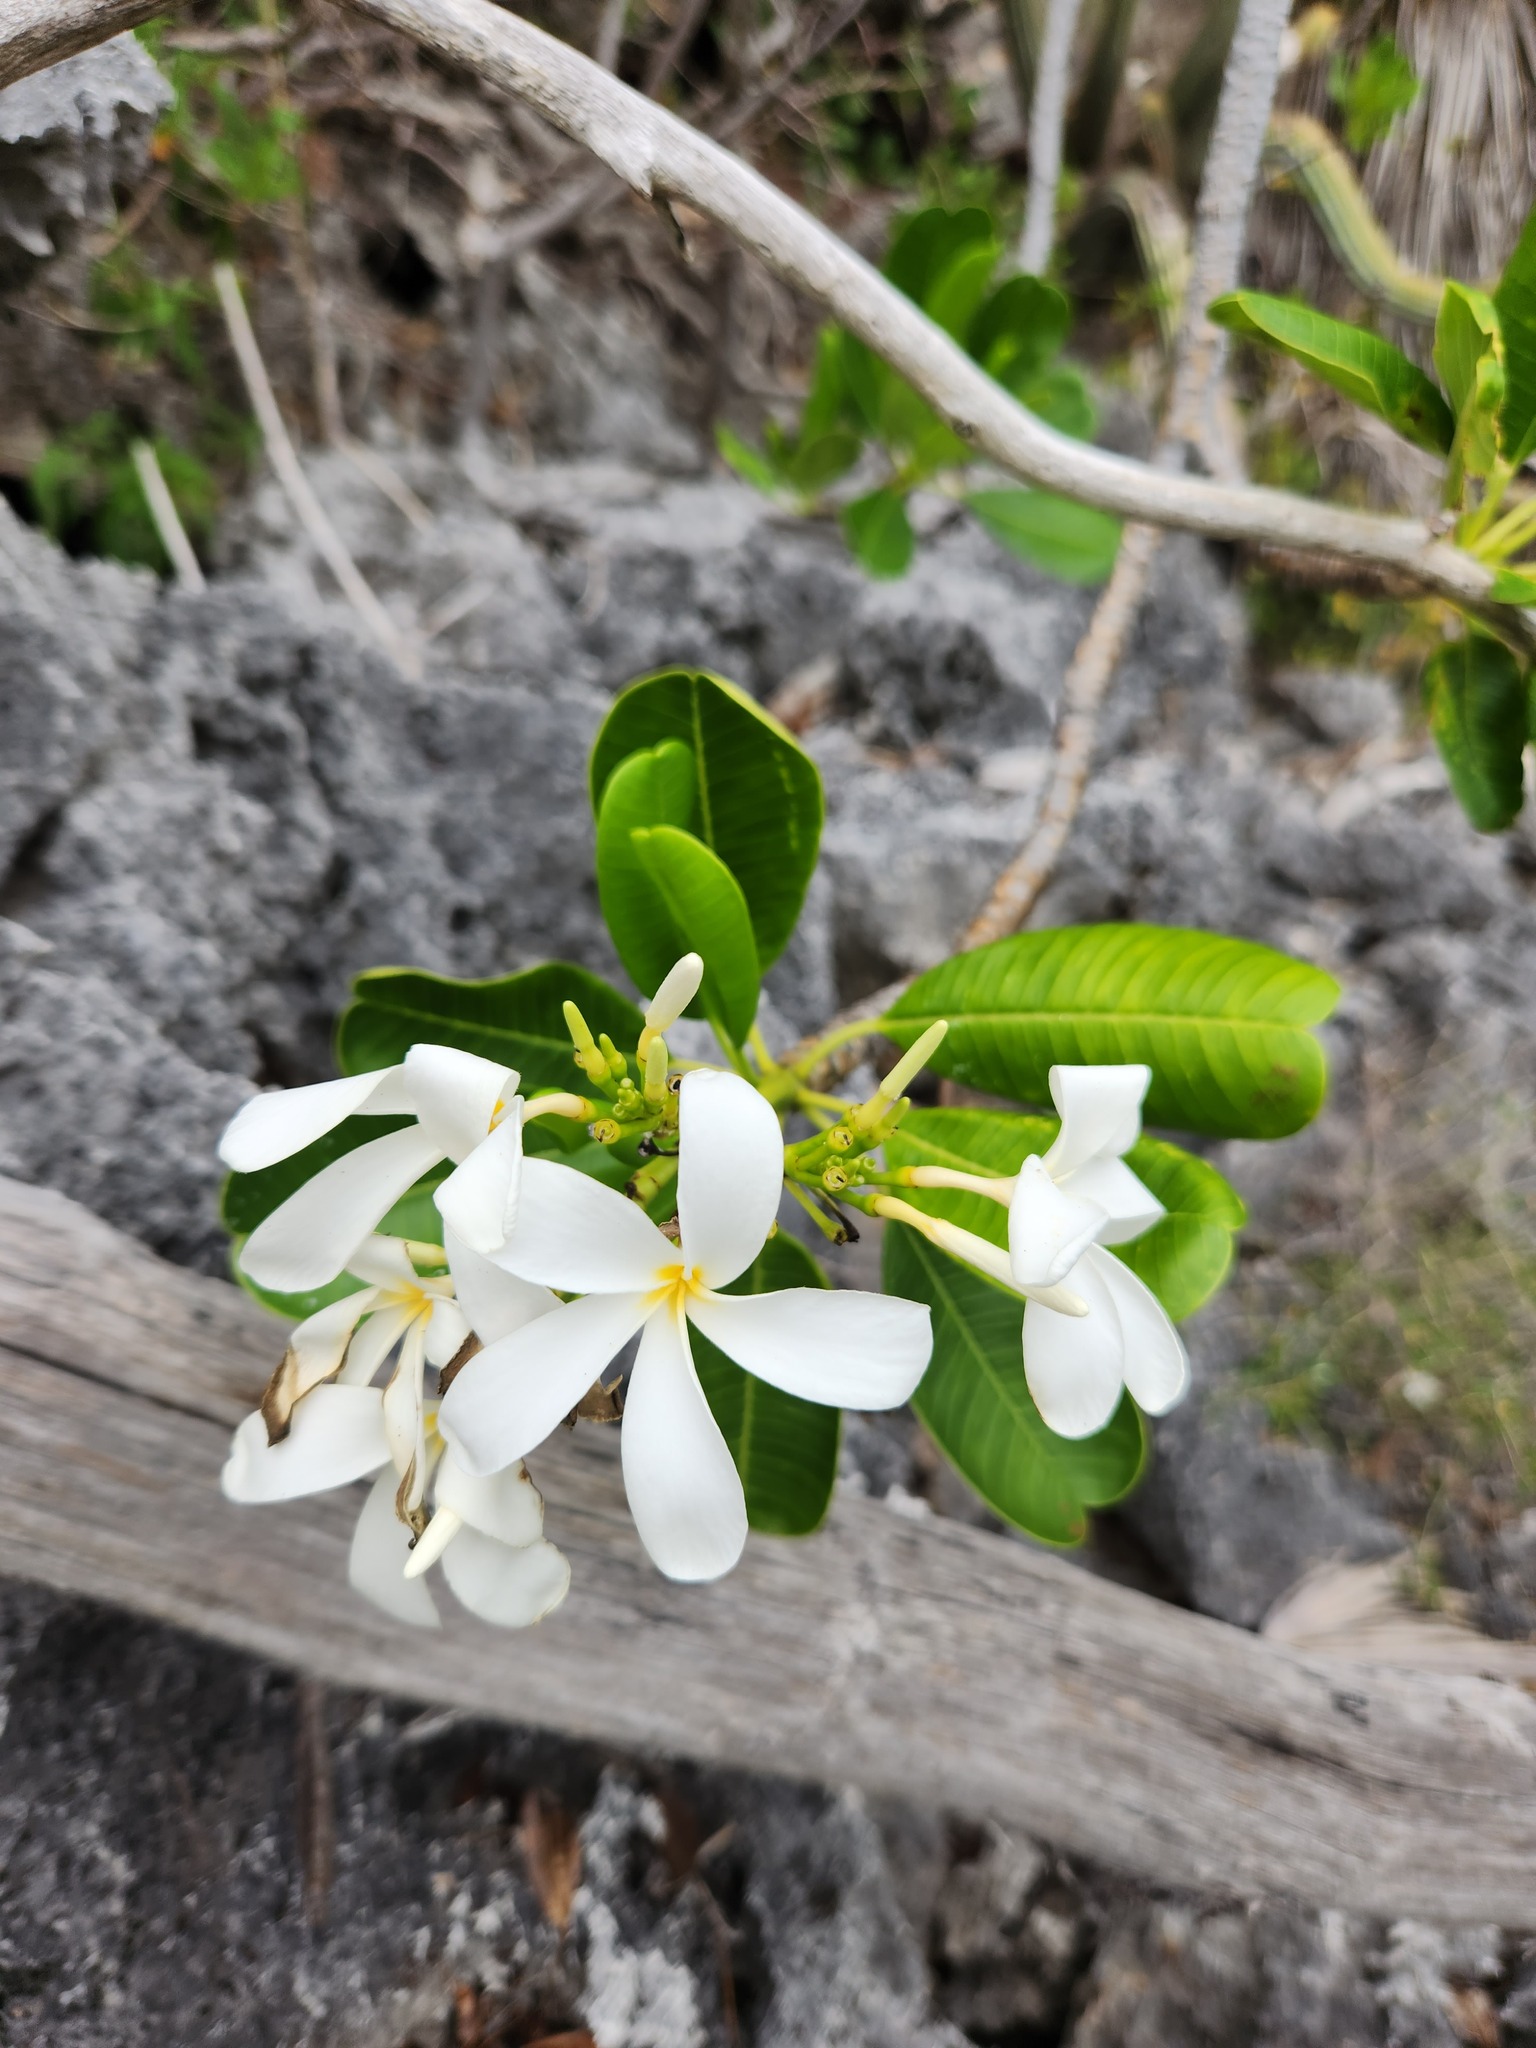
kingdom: Plantae
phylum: Tracheophyta
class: Magnoliopsida
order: Gentianales
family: Apocynaceae
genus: Plumeria
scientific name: Plumeria obtusa
